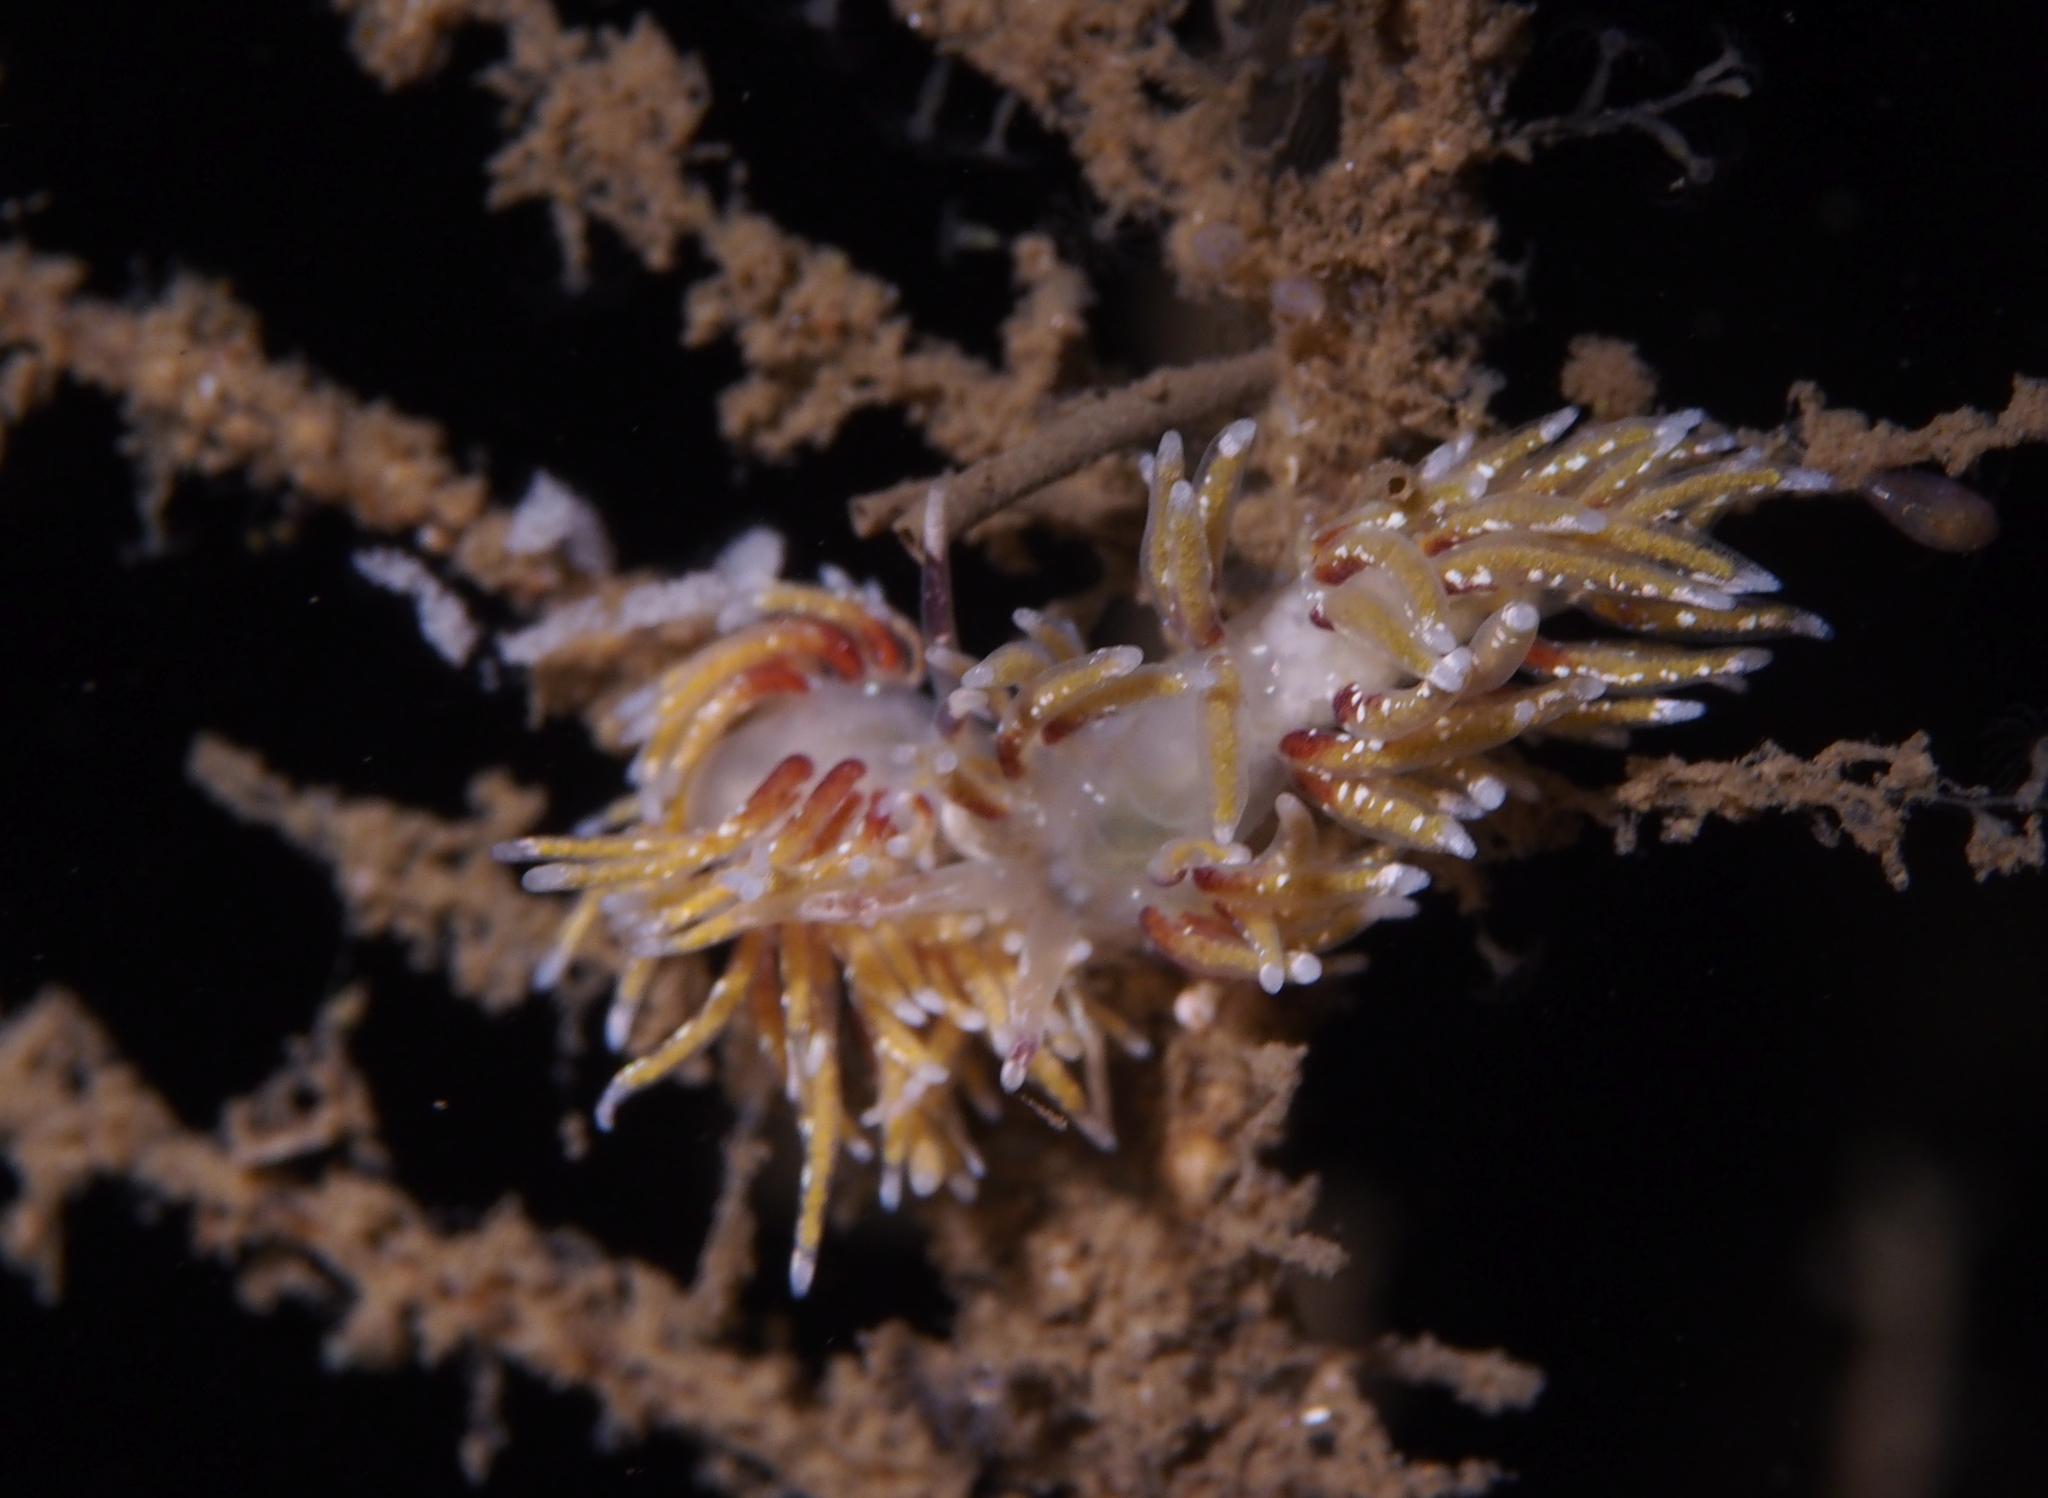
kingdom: Animalia
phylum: Mollusca
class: Gastropoda
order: Nudibranchia
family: Trinchesiidae
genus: Rubramoena
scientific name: Rubramoena rubescens
